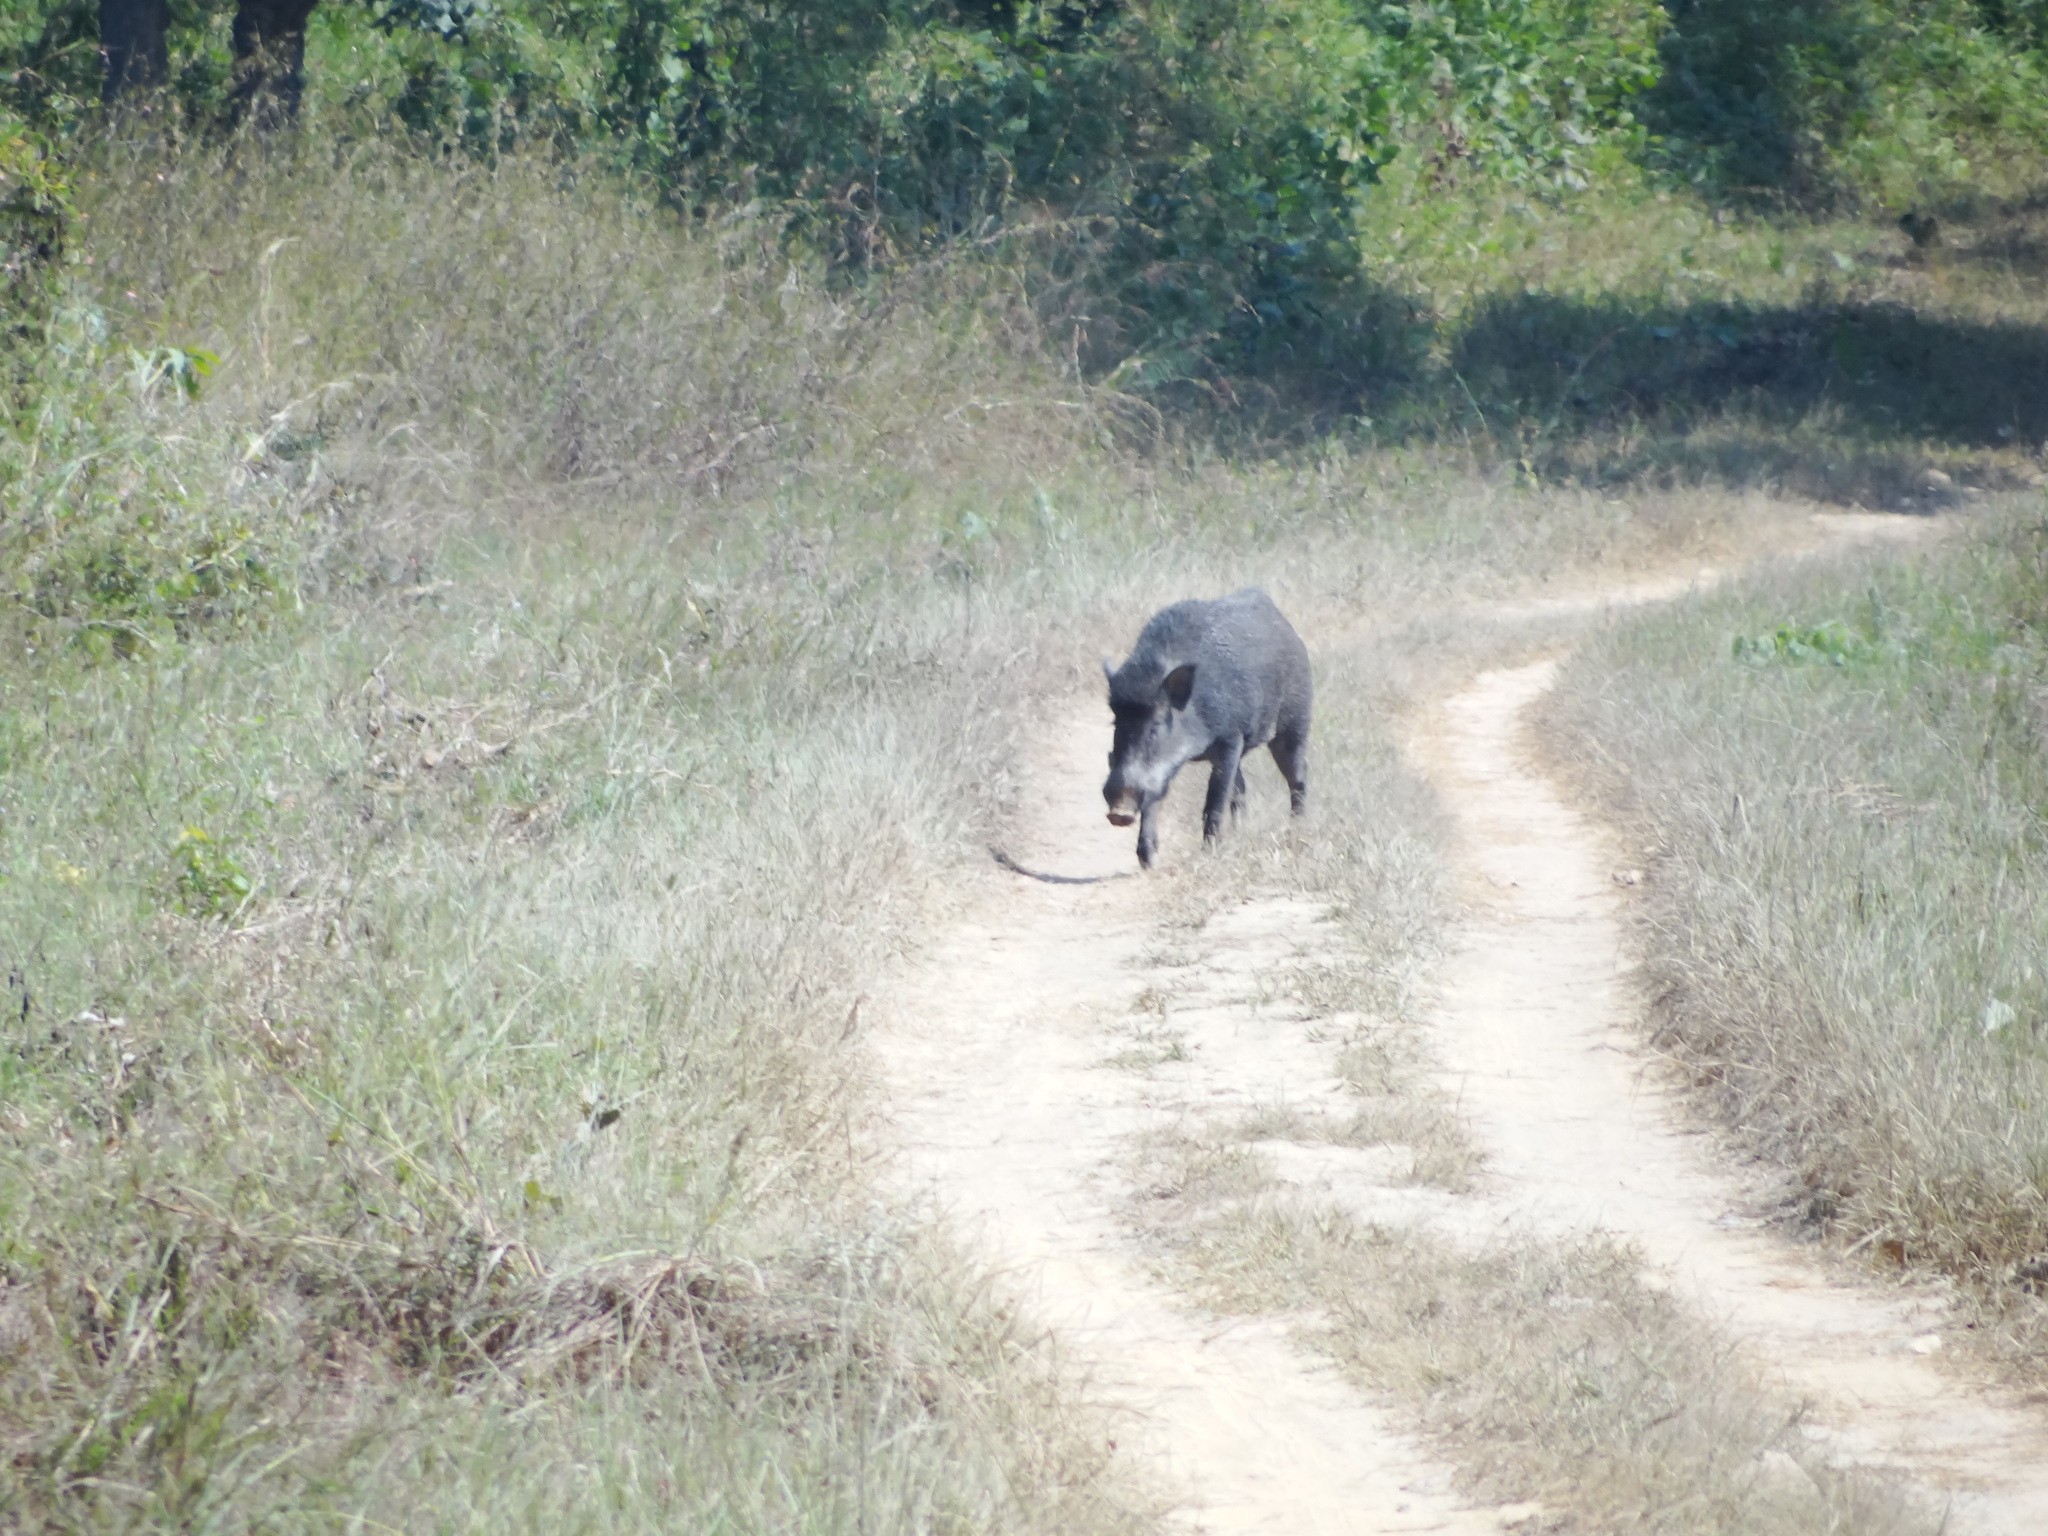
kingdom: Animalia
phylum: Chordata
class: Mammalia
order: Artiodactyla
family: Suidae
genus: Sus
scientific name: Sus scrofa
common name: Wild boar
